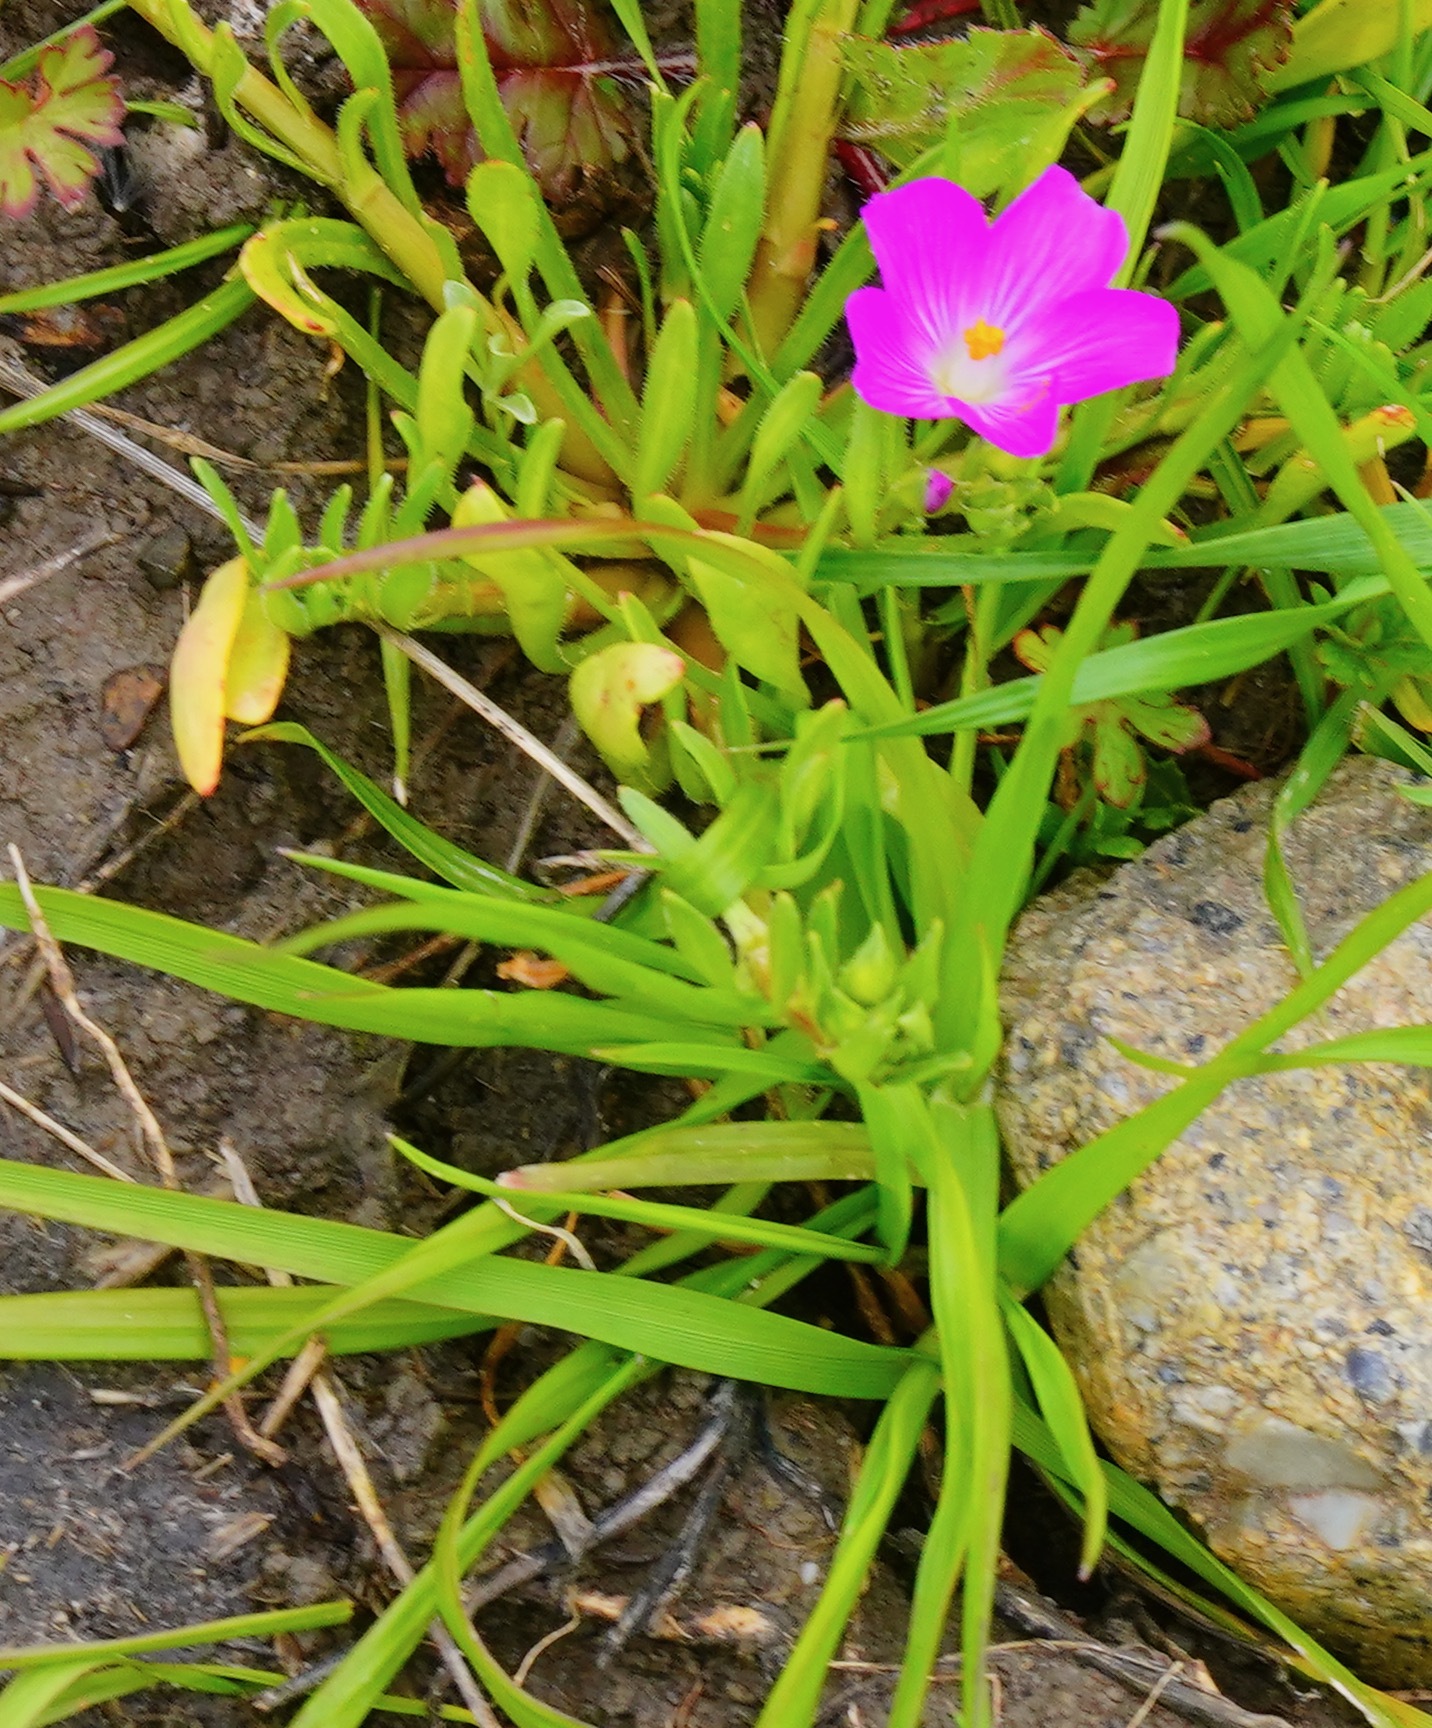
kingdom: Plantae
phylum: Tracheophyta
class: Magnoliopsida
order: Caryophyllales
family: Montiaceae
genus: Calandrinia
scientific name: Calandrinia menziesii
